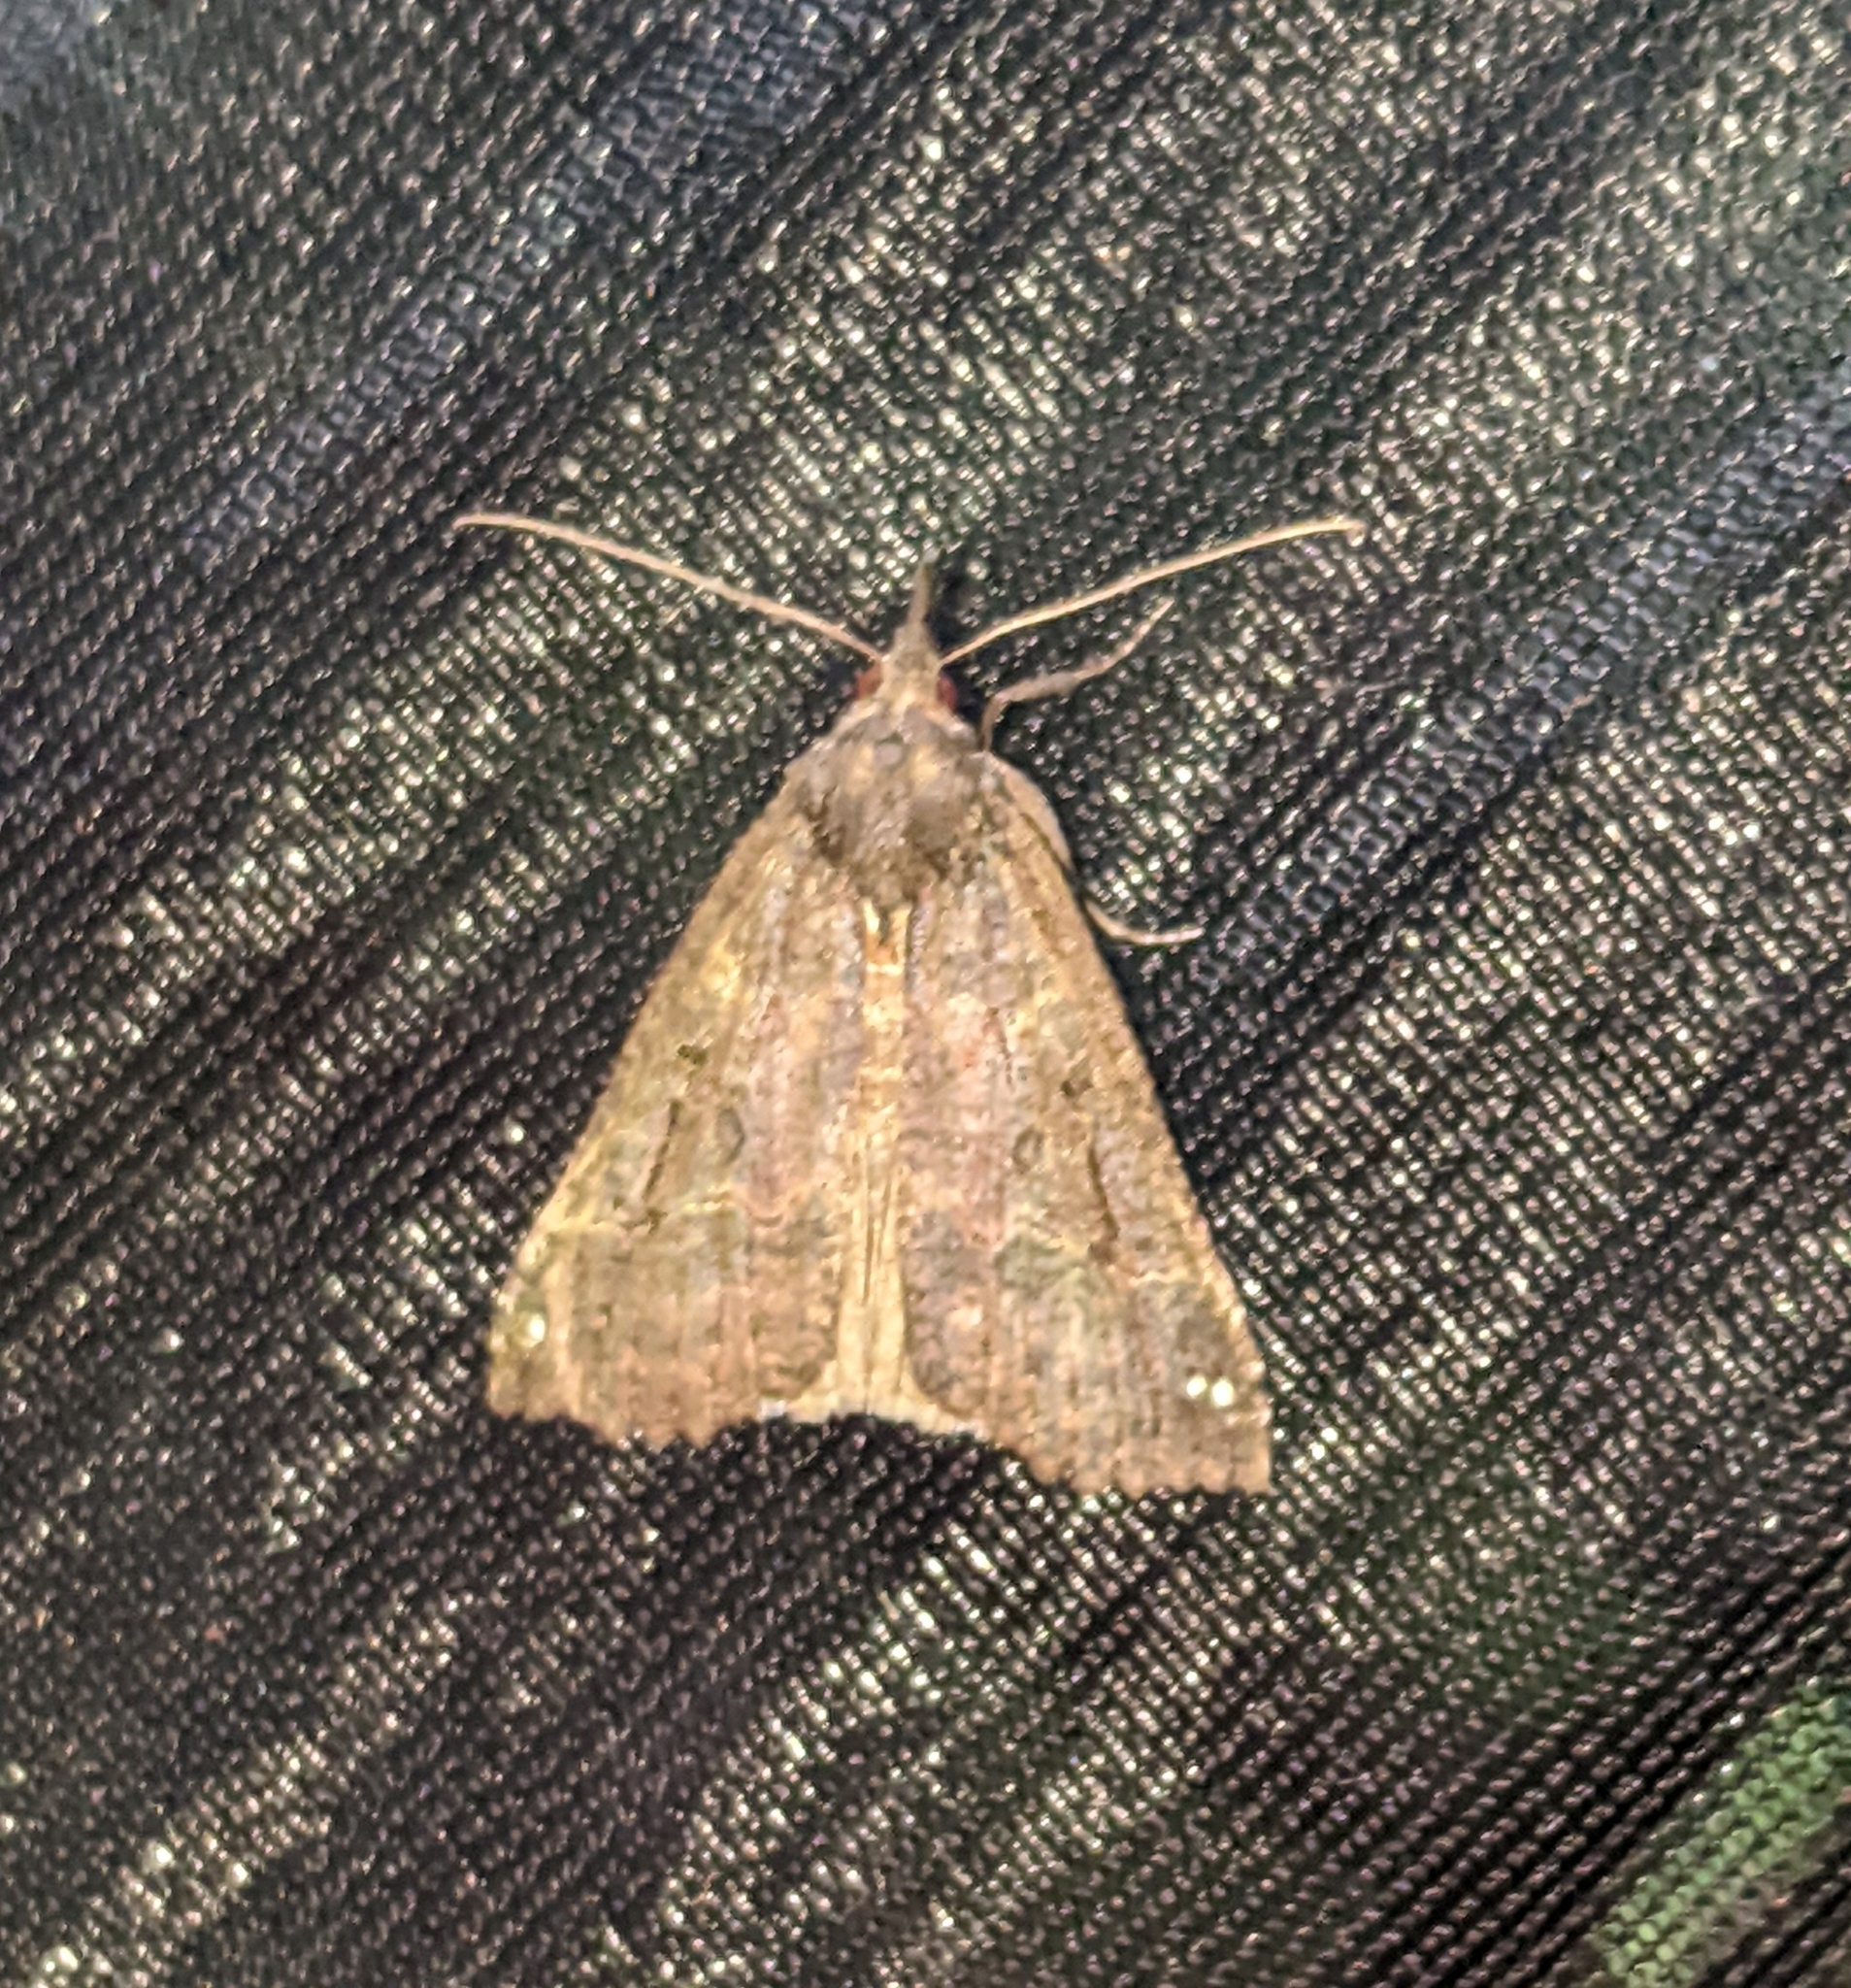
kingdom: Animalia
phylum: Arthropoda
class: Insecta
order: Lepidoptera
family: Erebidae
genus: Hypena
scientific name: Hypena decorata
